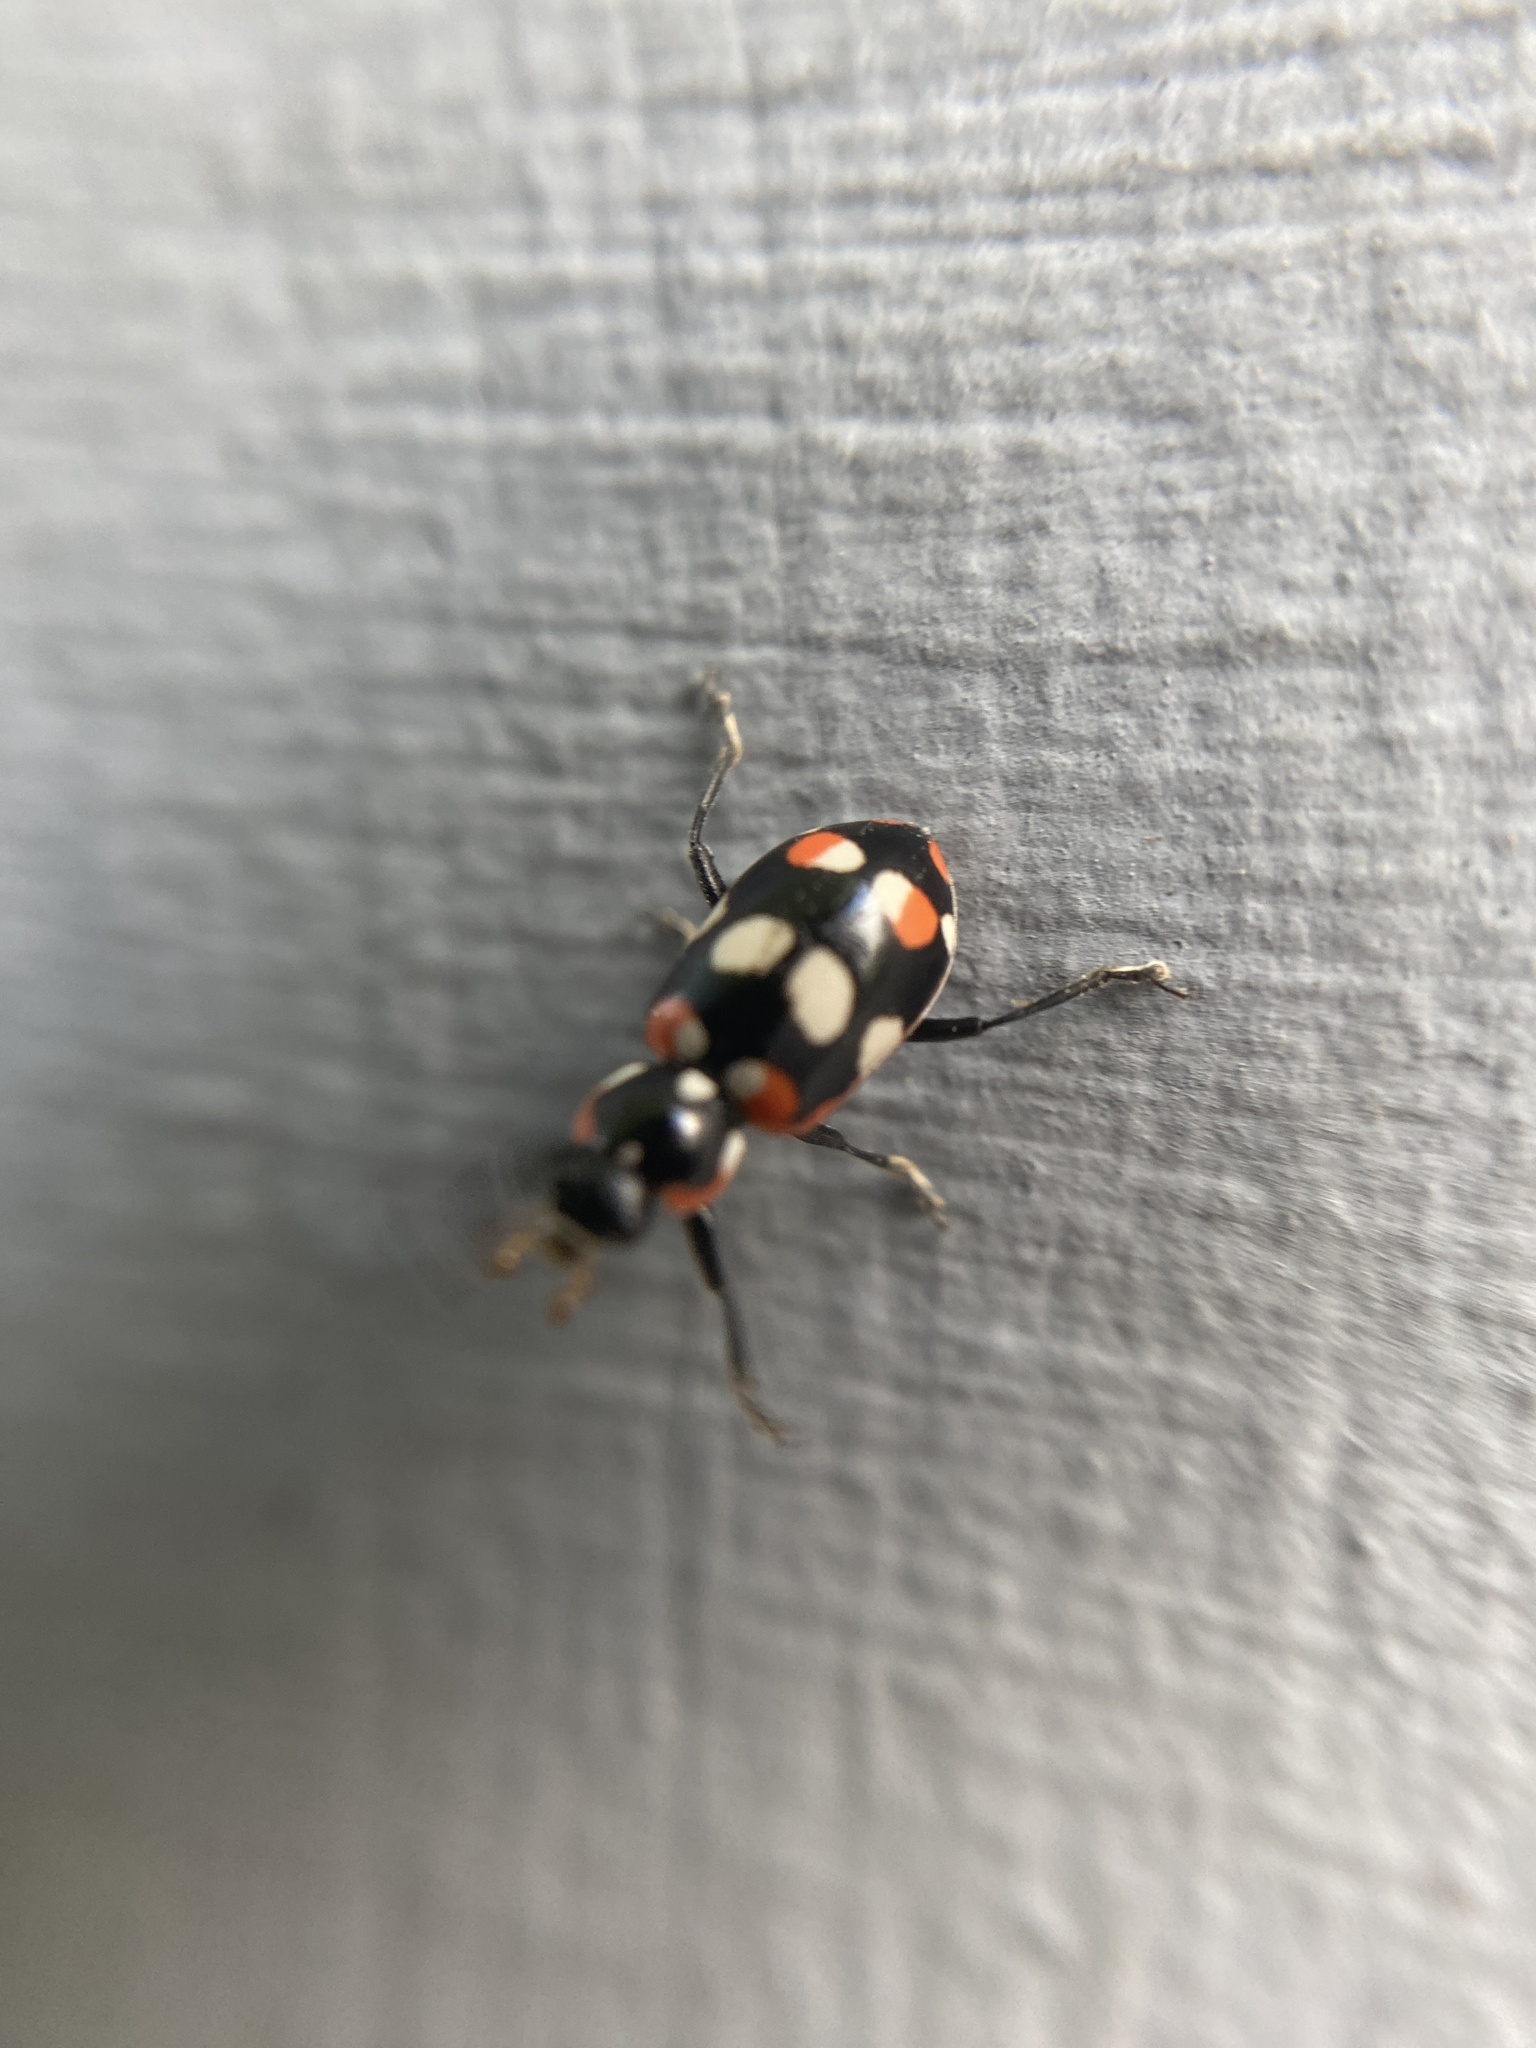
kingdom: Animalia
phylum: Arthropoda
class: Insecta
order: Coleoptera
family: Coccinellidae
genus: Eriopis
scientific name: Eriopis connexa
